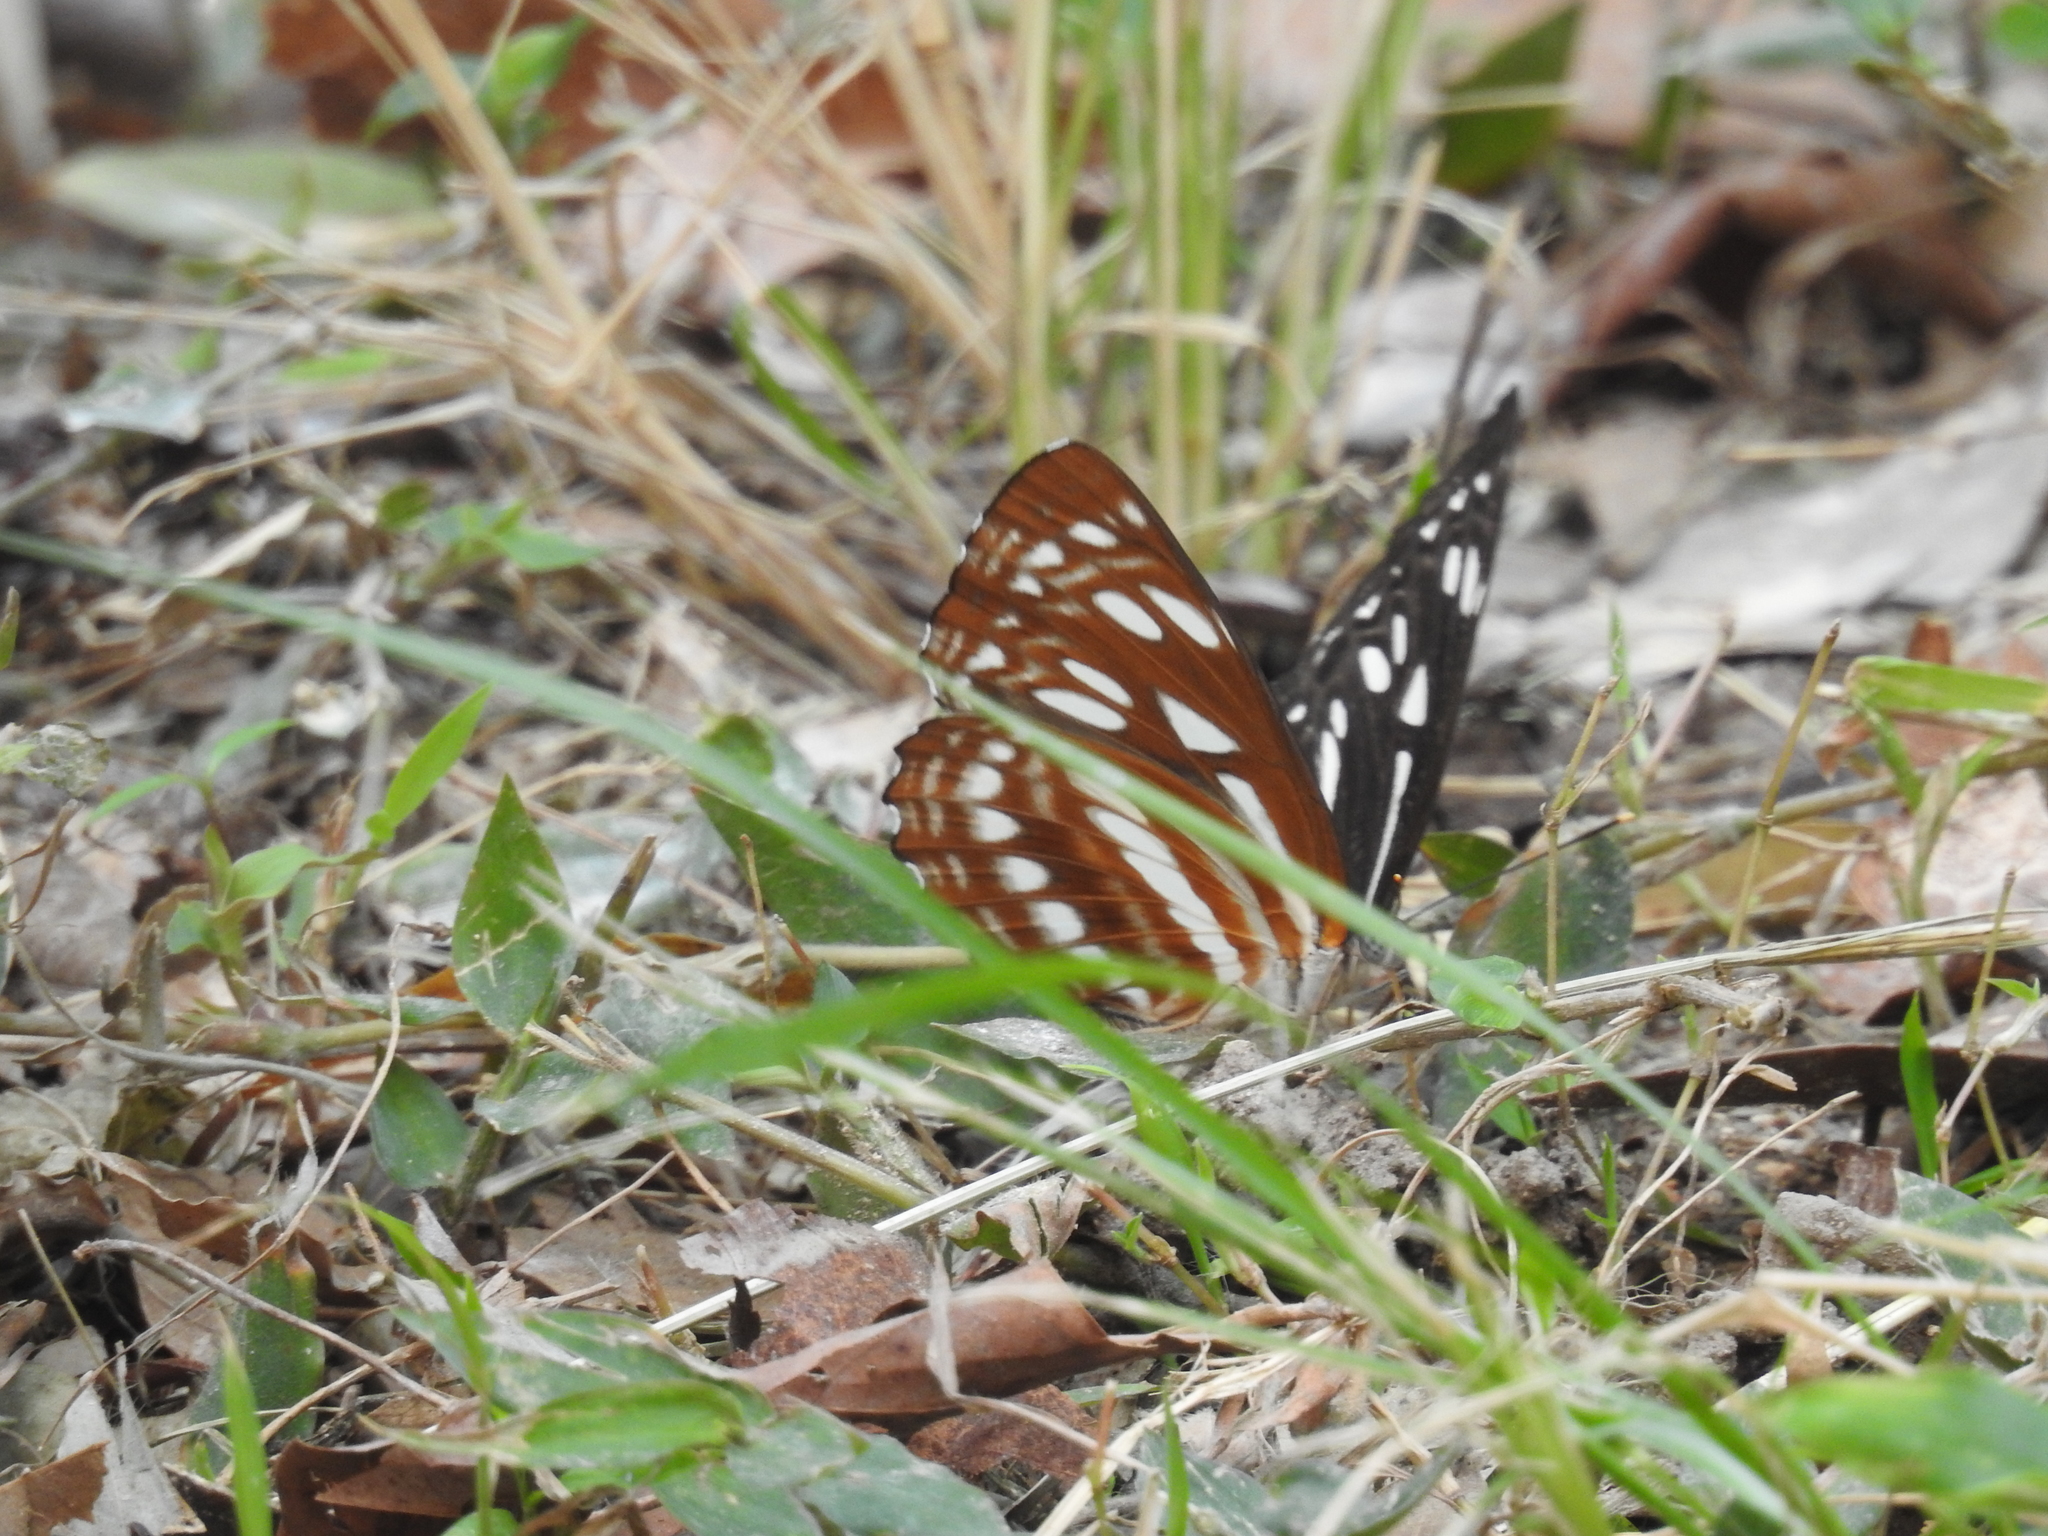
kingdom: Animalia
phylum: Arthropoda
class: Insecta
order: Lepidoptera
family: Nymphalidae
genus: Phaedyma
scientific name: Phaedyma columella
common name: Short banded sailer
